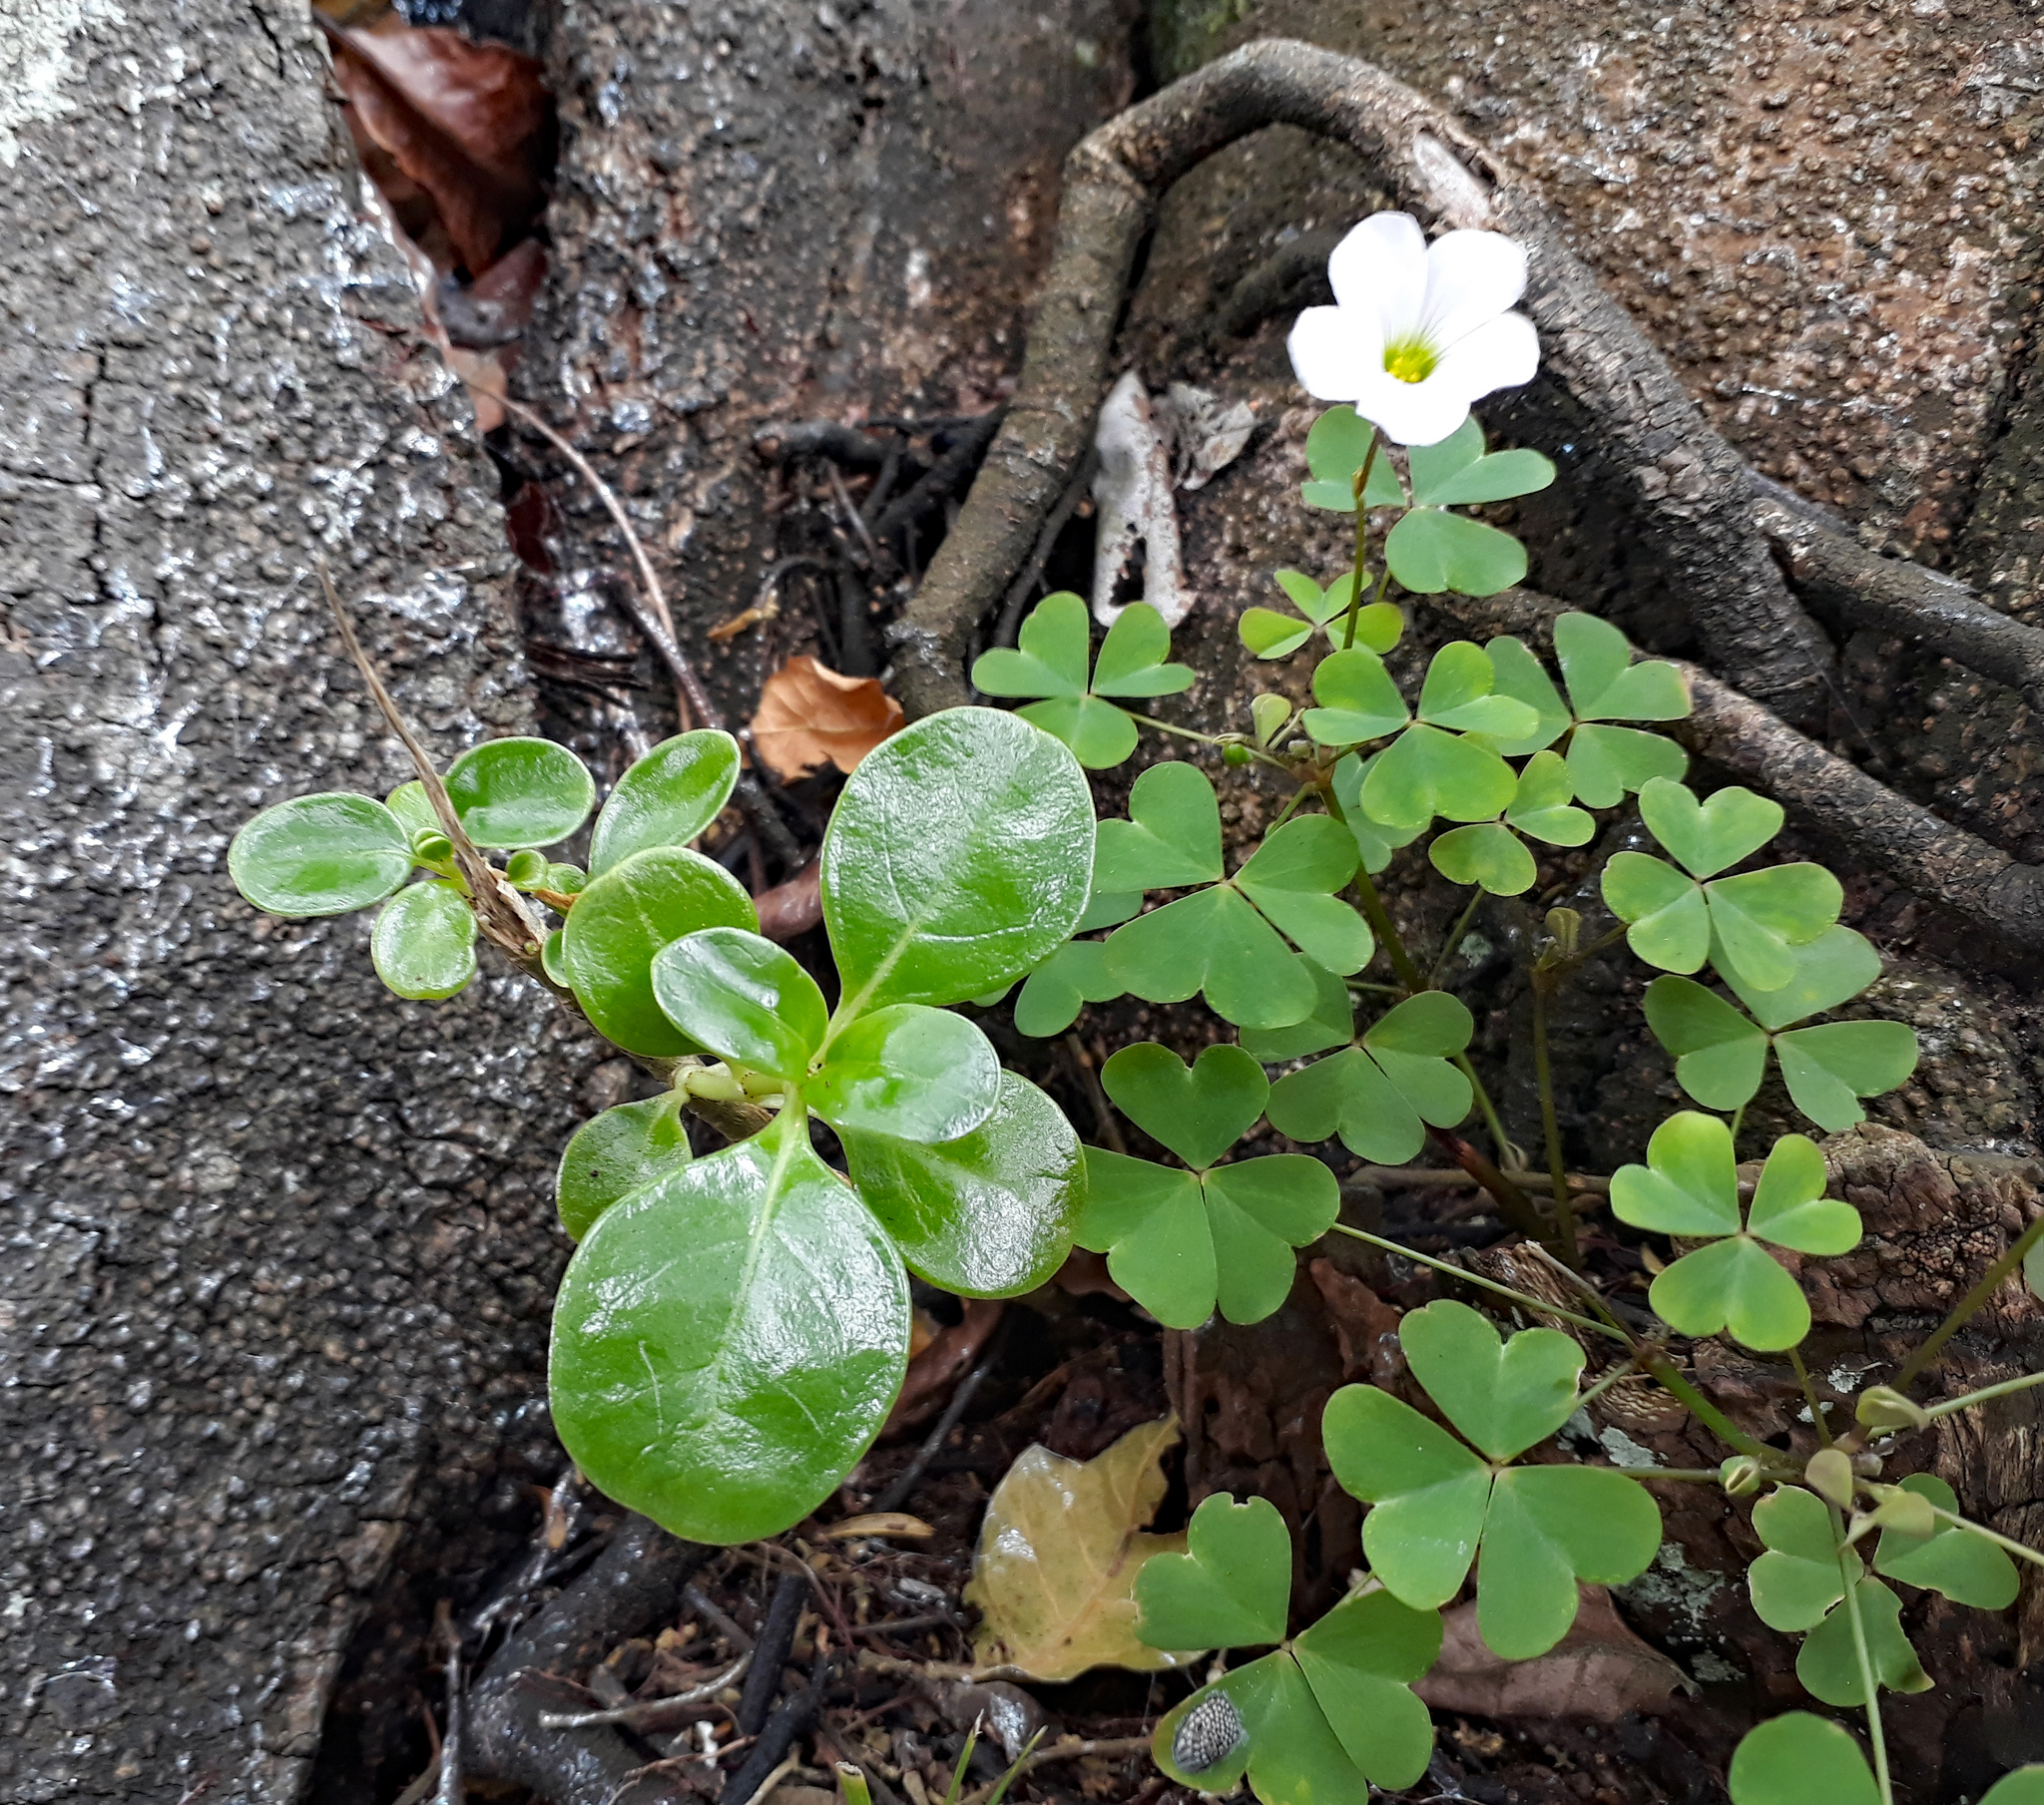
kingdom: Plantae
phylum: Tracheophyta
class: Magnoliopsida
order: Gentianales
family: Rubiaceae
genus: Coprosma
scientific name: Coprosma repens
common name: Tree bedstraw
